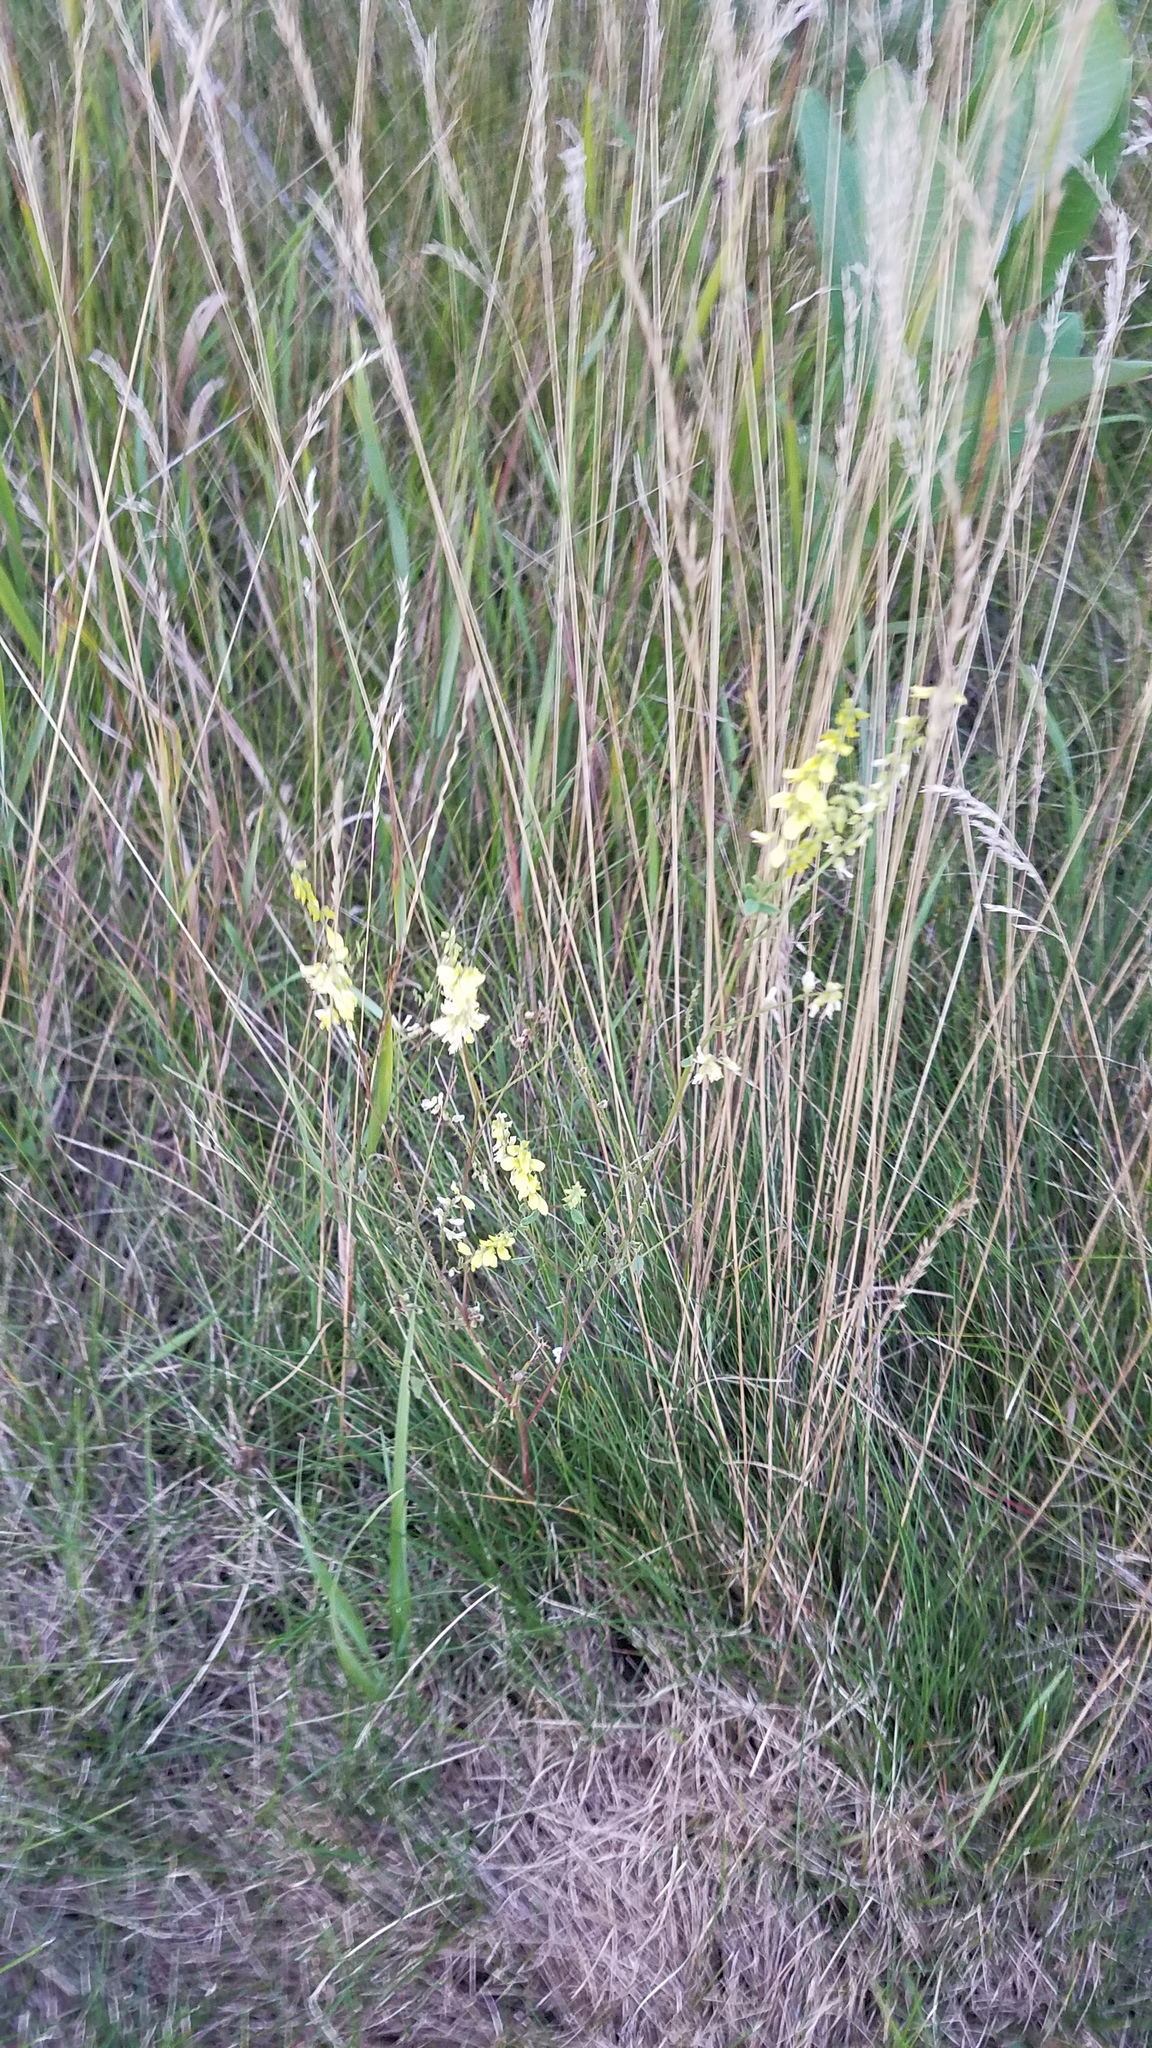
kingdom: Plantae
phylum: Tracheophyta
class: Magnoliopsida
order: Fabales
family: Fabaceae
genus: Melilotus
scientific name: Melilotus officinalis
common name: Sweetclover
